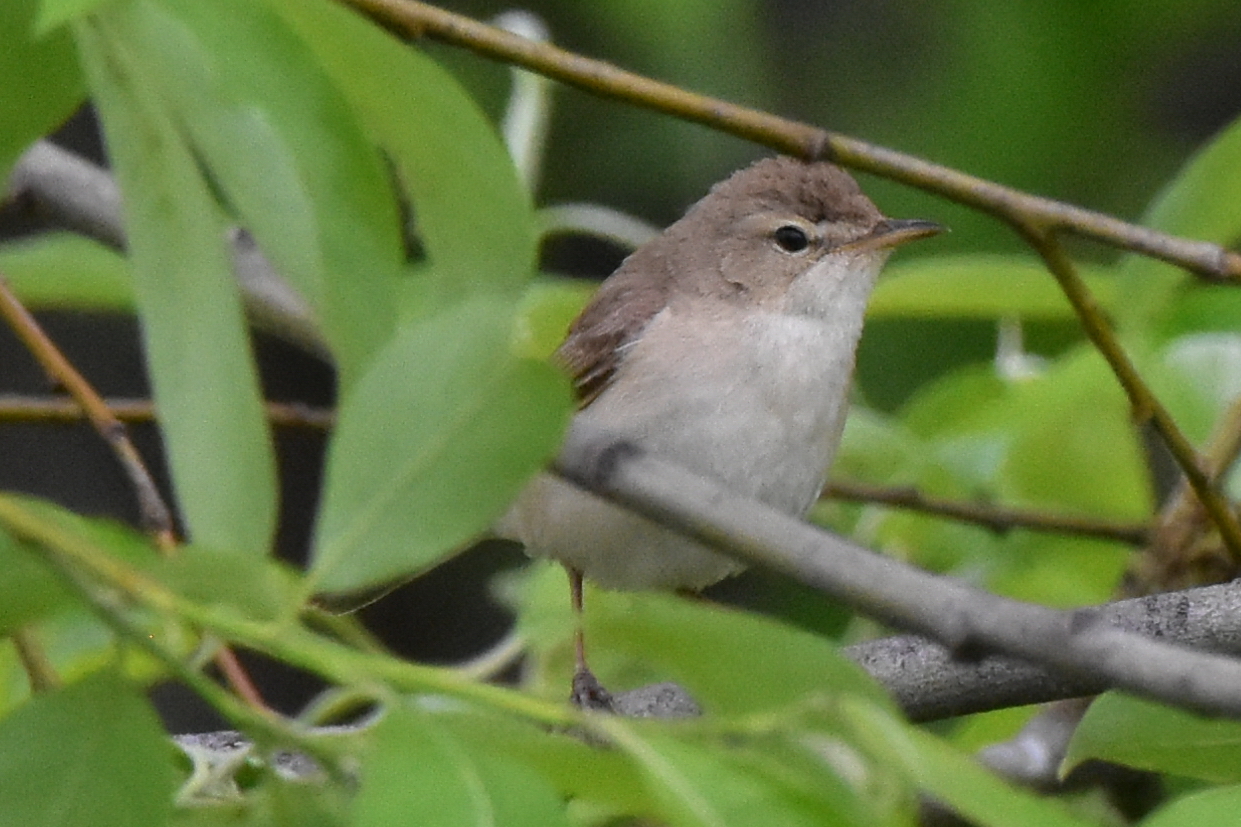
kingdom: Animalia
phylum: Chordata
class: Aves
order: Passeriformes
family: Acrocephalidae
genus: Iduna
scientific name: Iduna caligata
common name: Booted warbler
